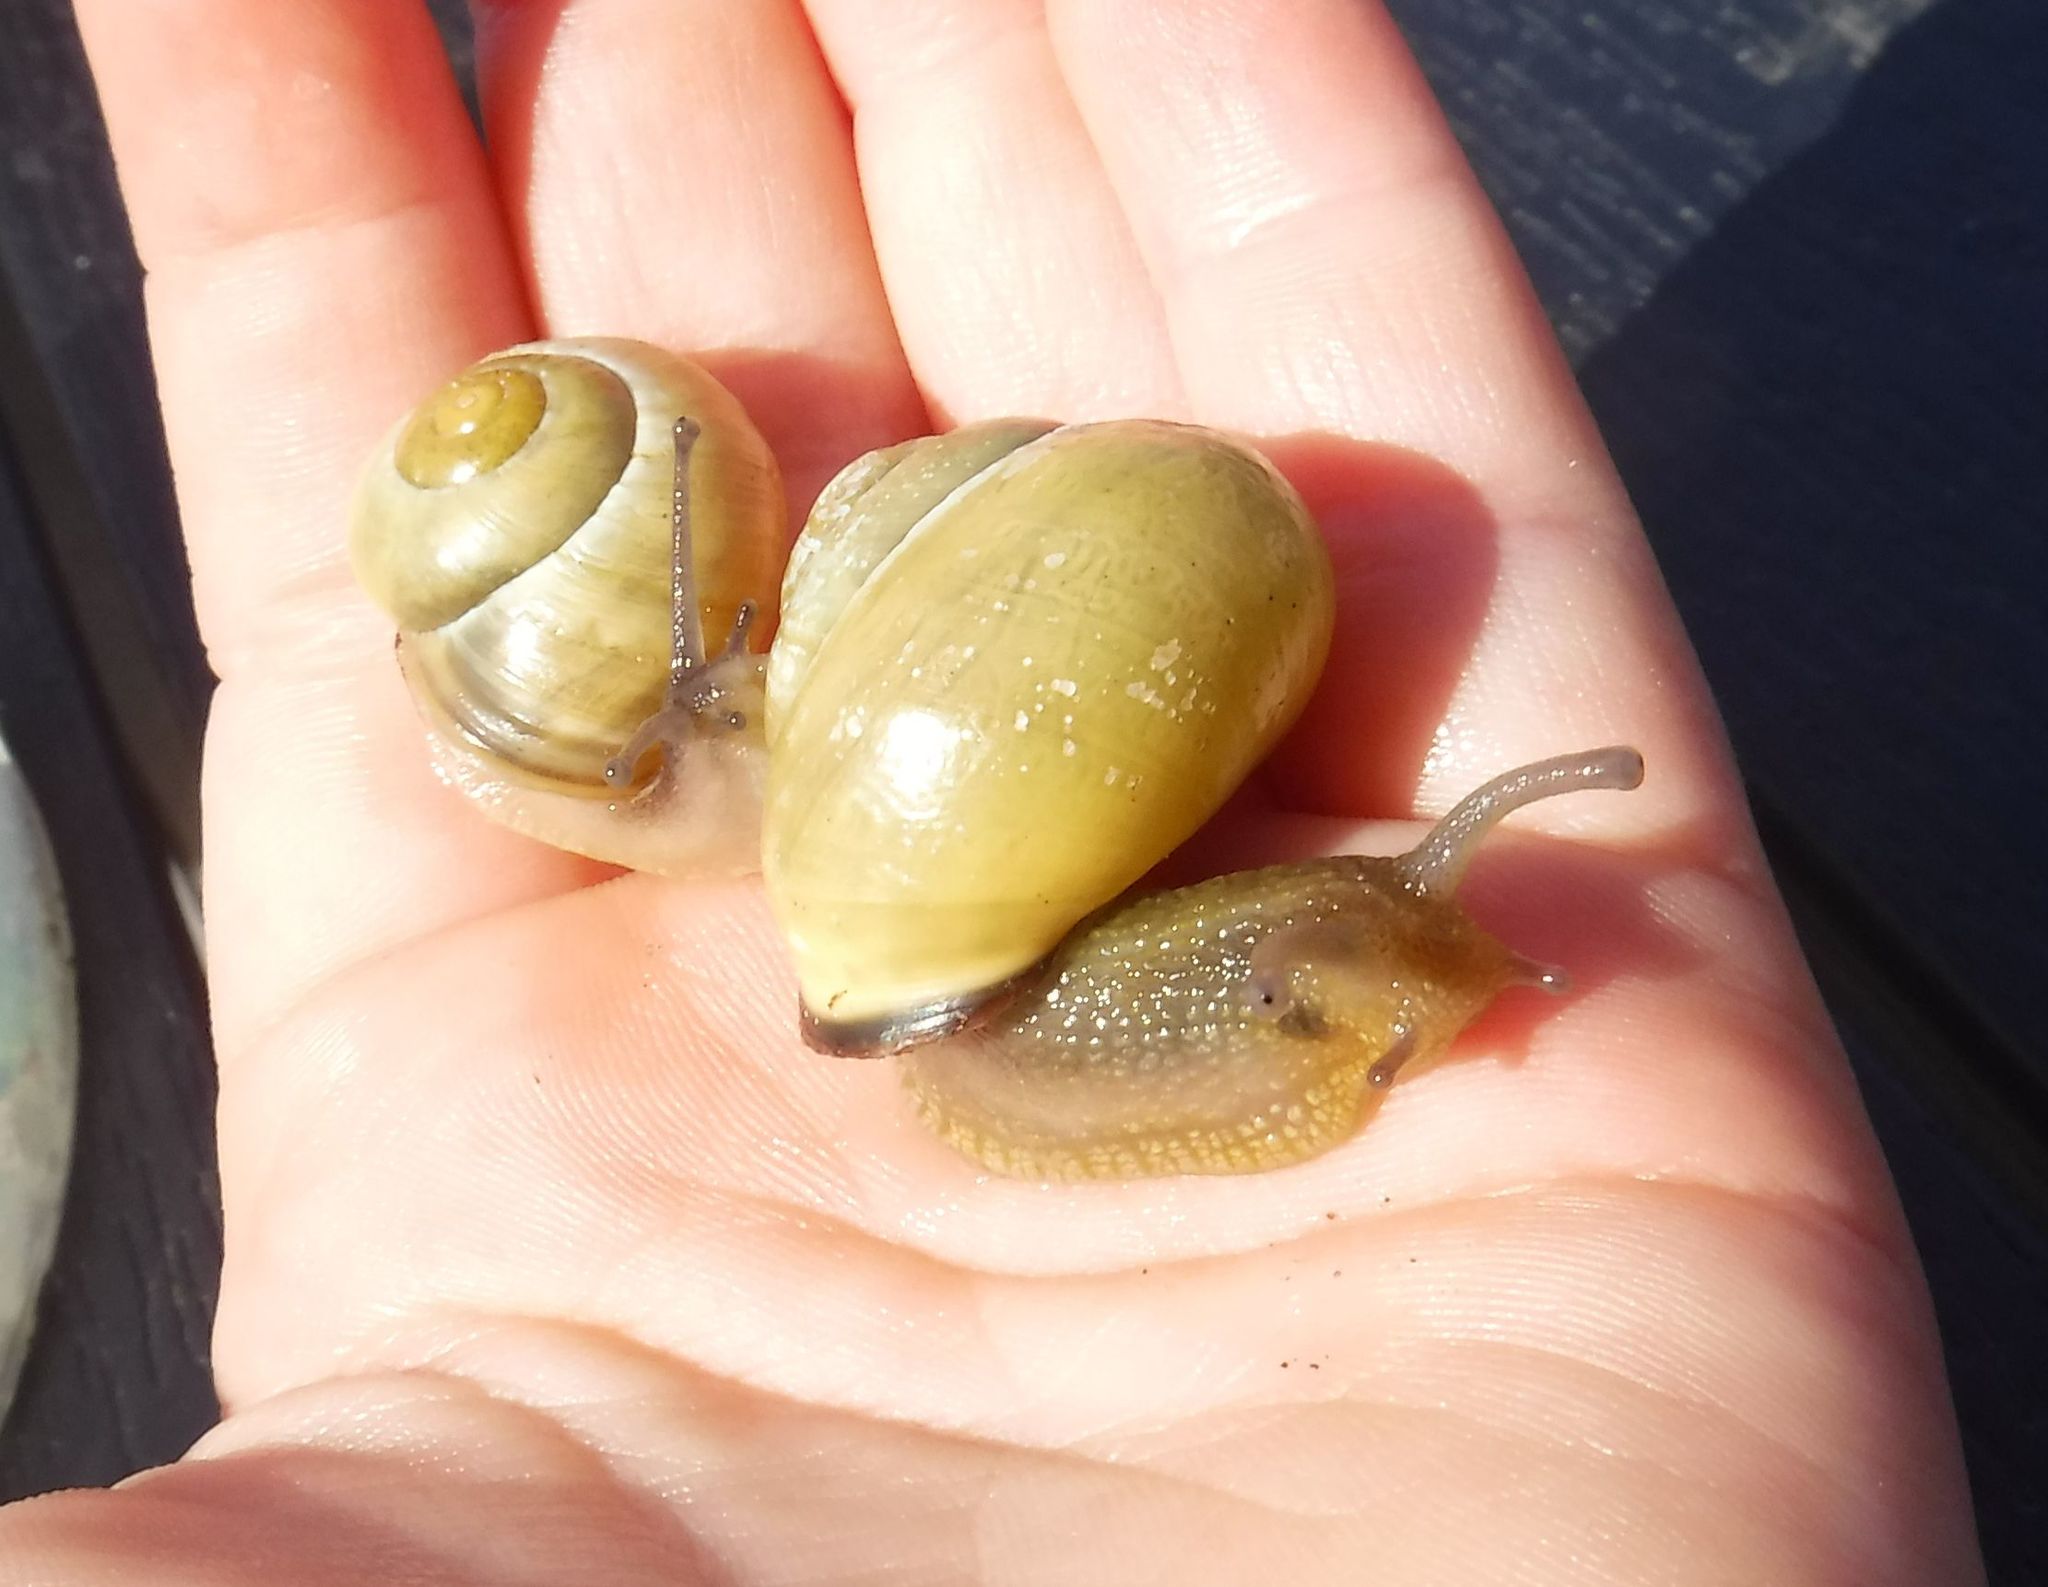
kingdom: Animalia
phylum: Mollusca
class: Gastropoda
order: Stylommatophora
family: Helicidae
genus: Cepaea
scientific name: Cepaea nemoralis
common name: Grovesnail
